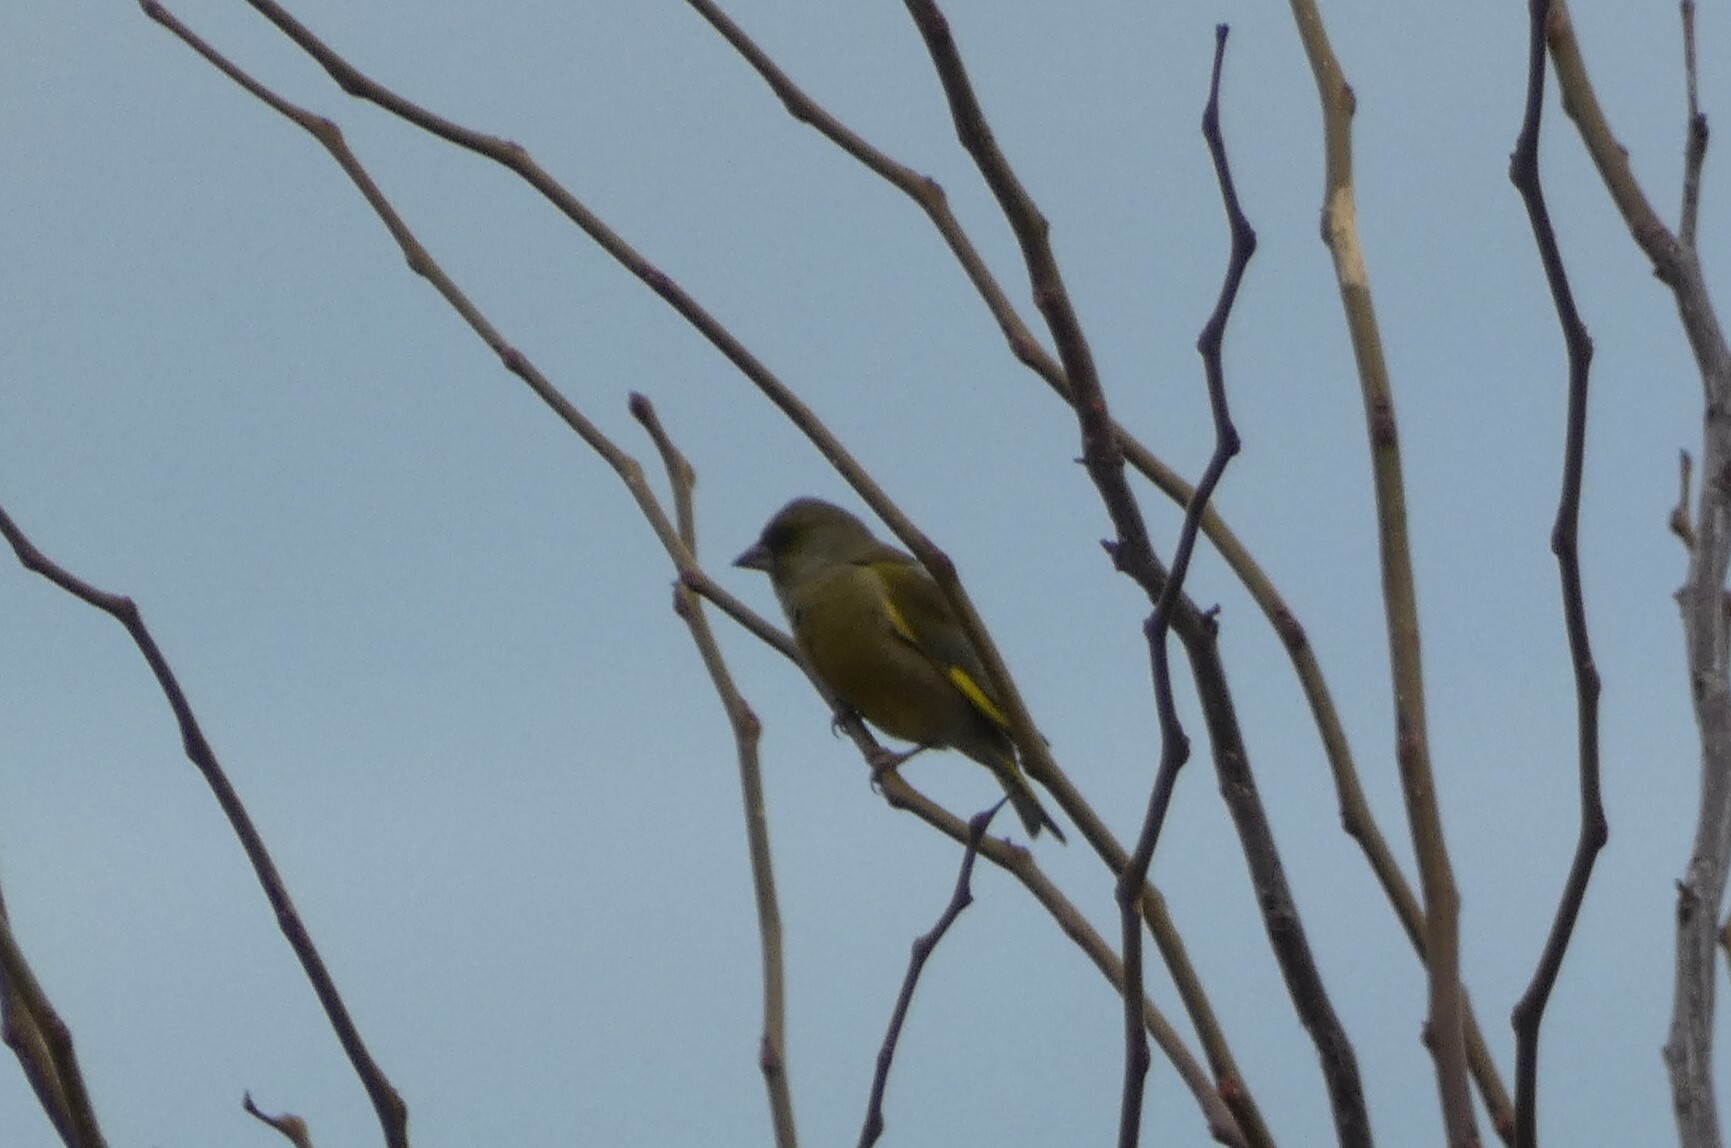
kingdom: Plantae
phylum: Tracheophyta
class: Liliopsida
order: Poales
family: Poaceae
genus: Chloris
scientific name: Chloris chloris
